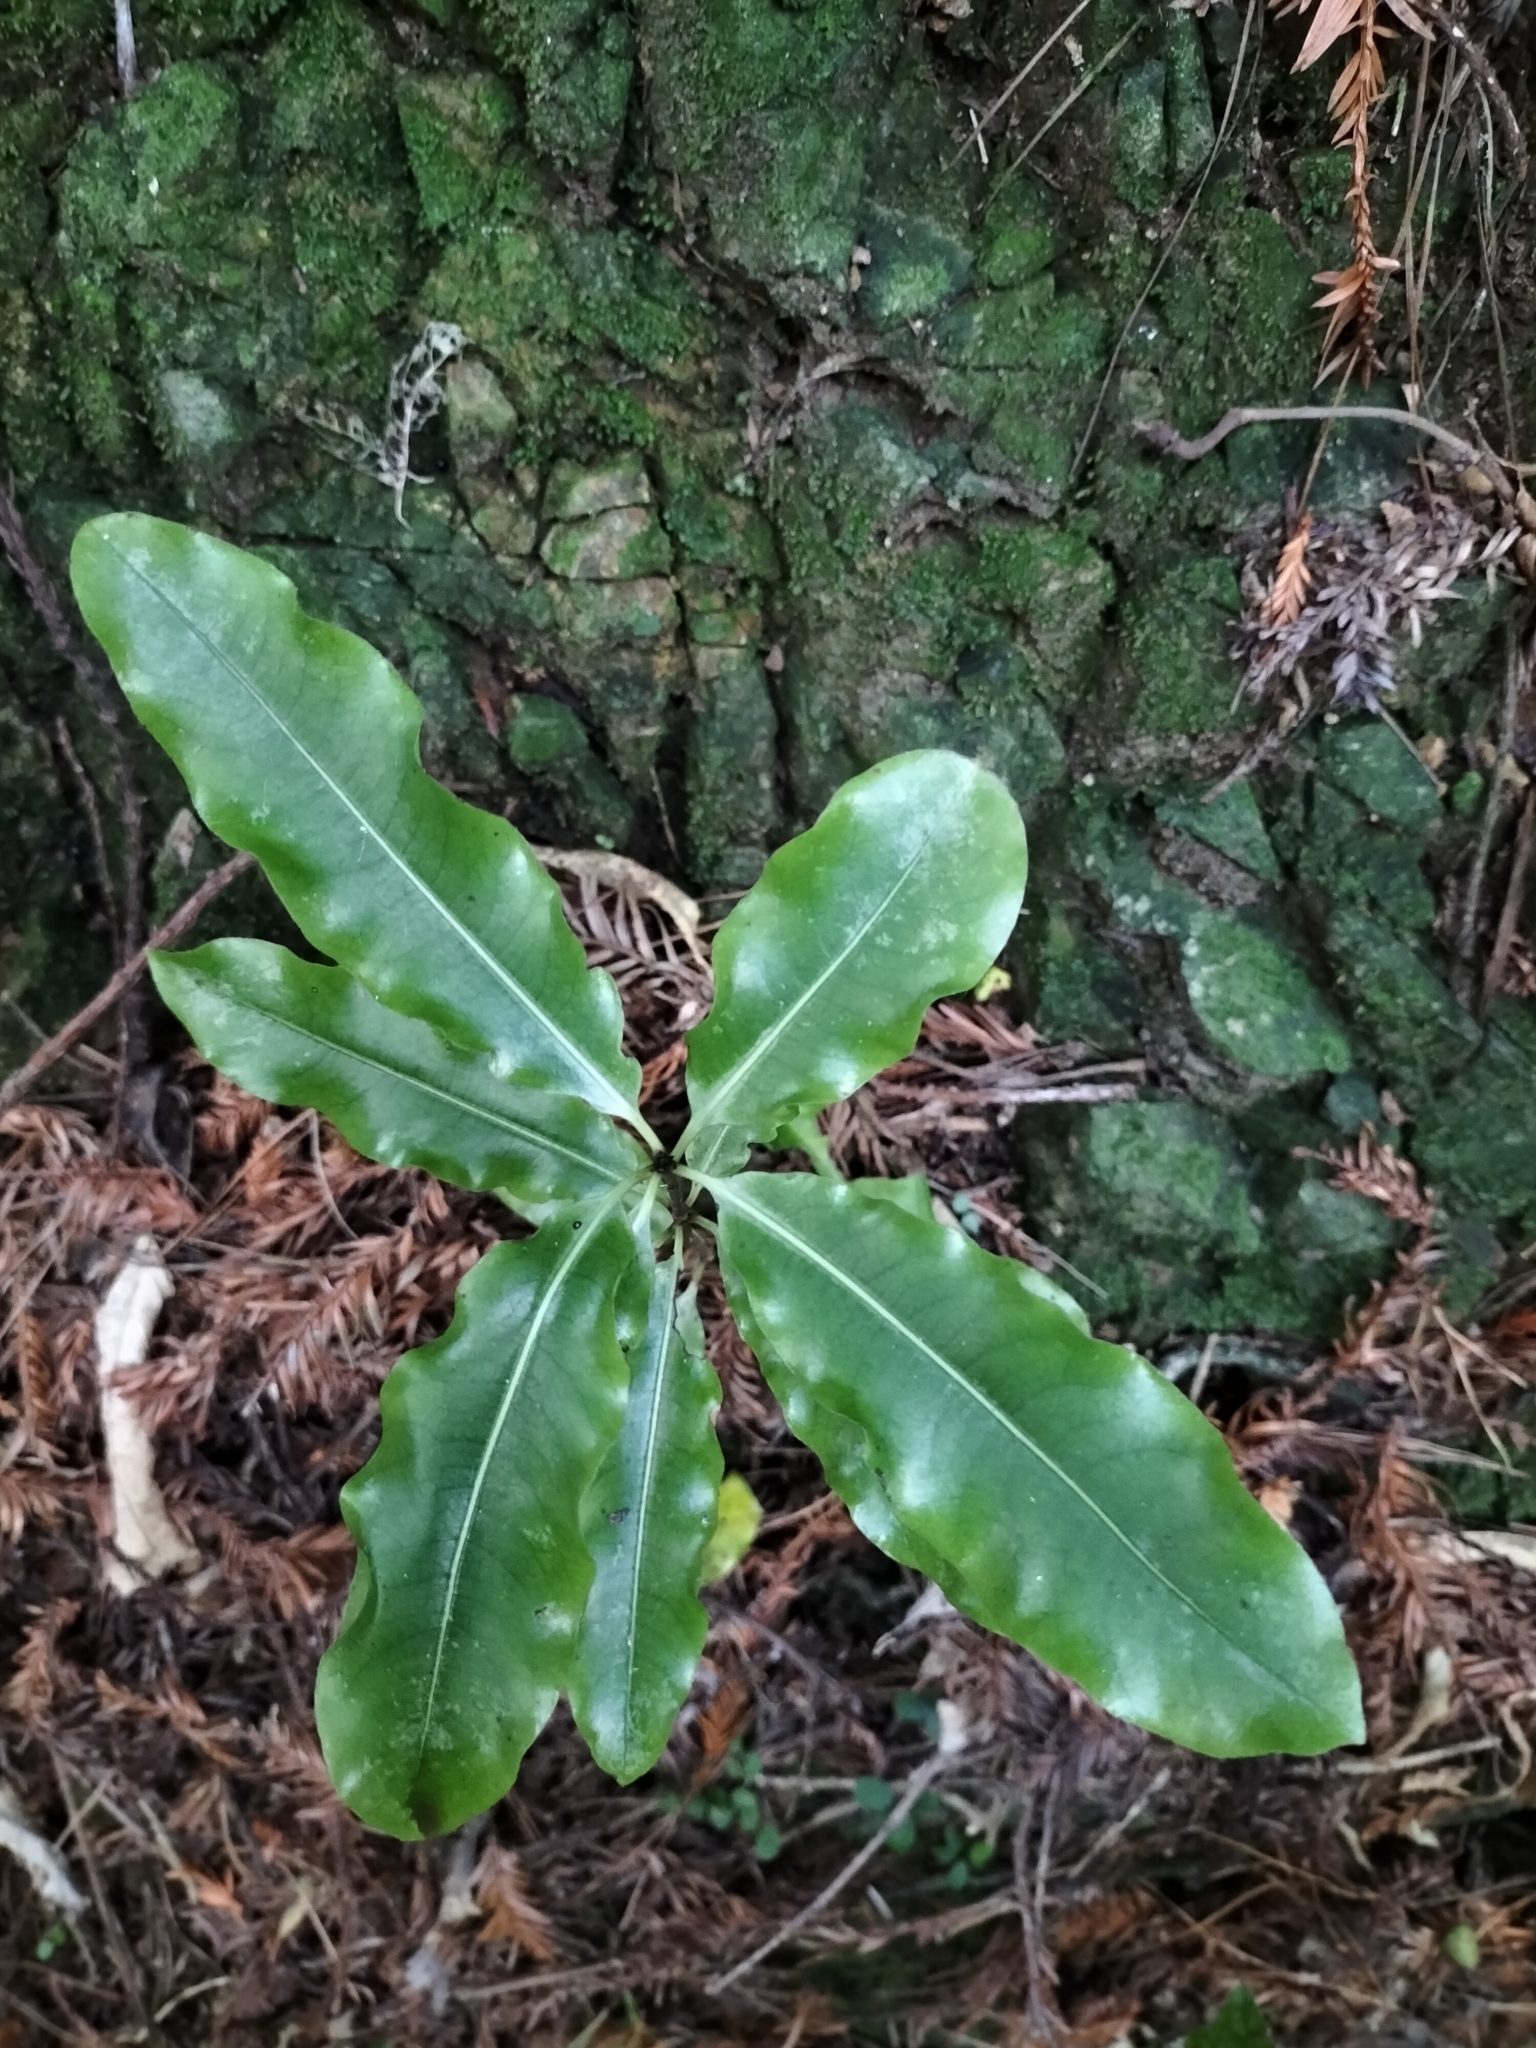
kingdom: Plantae
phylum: Tracheophyta
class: Magnoliopsida
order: Apiales
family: Pittosporaceae
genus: Pittosporum
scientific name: Pittosporum eugenioides
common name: Lemonwood
